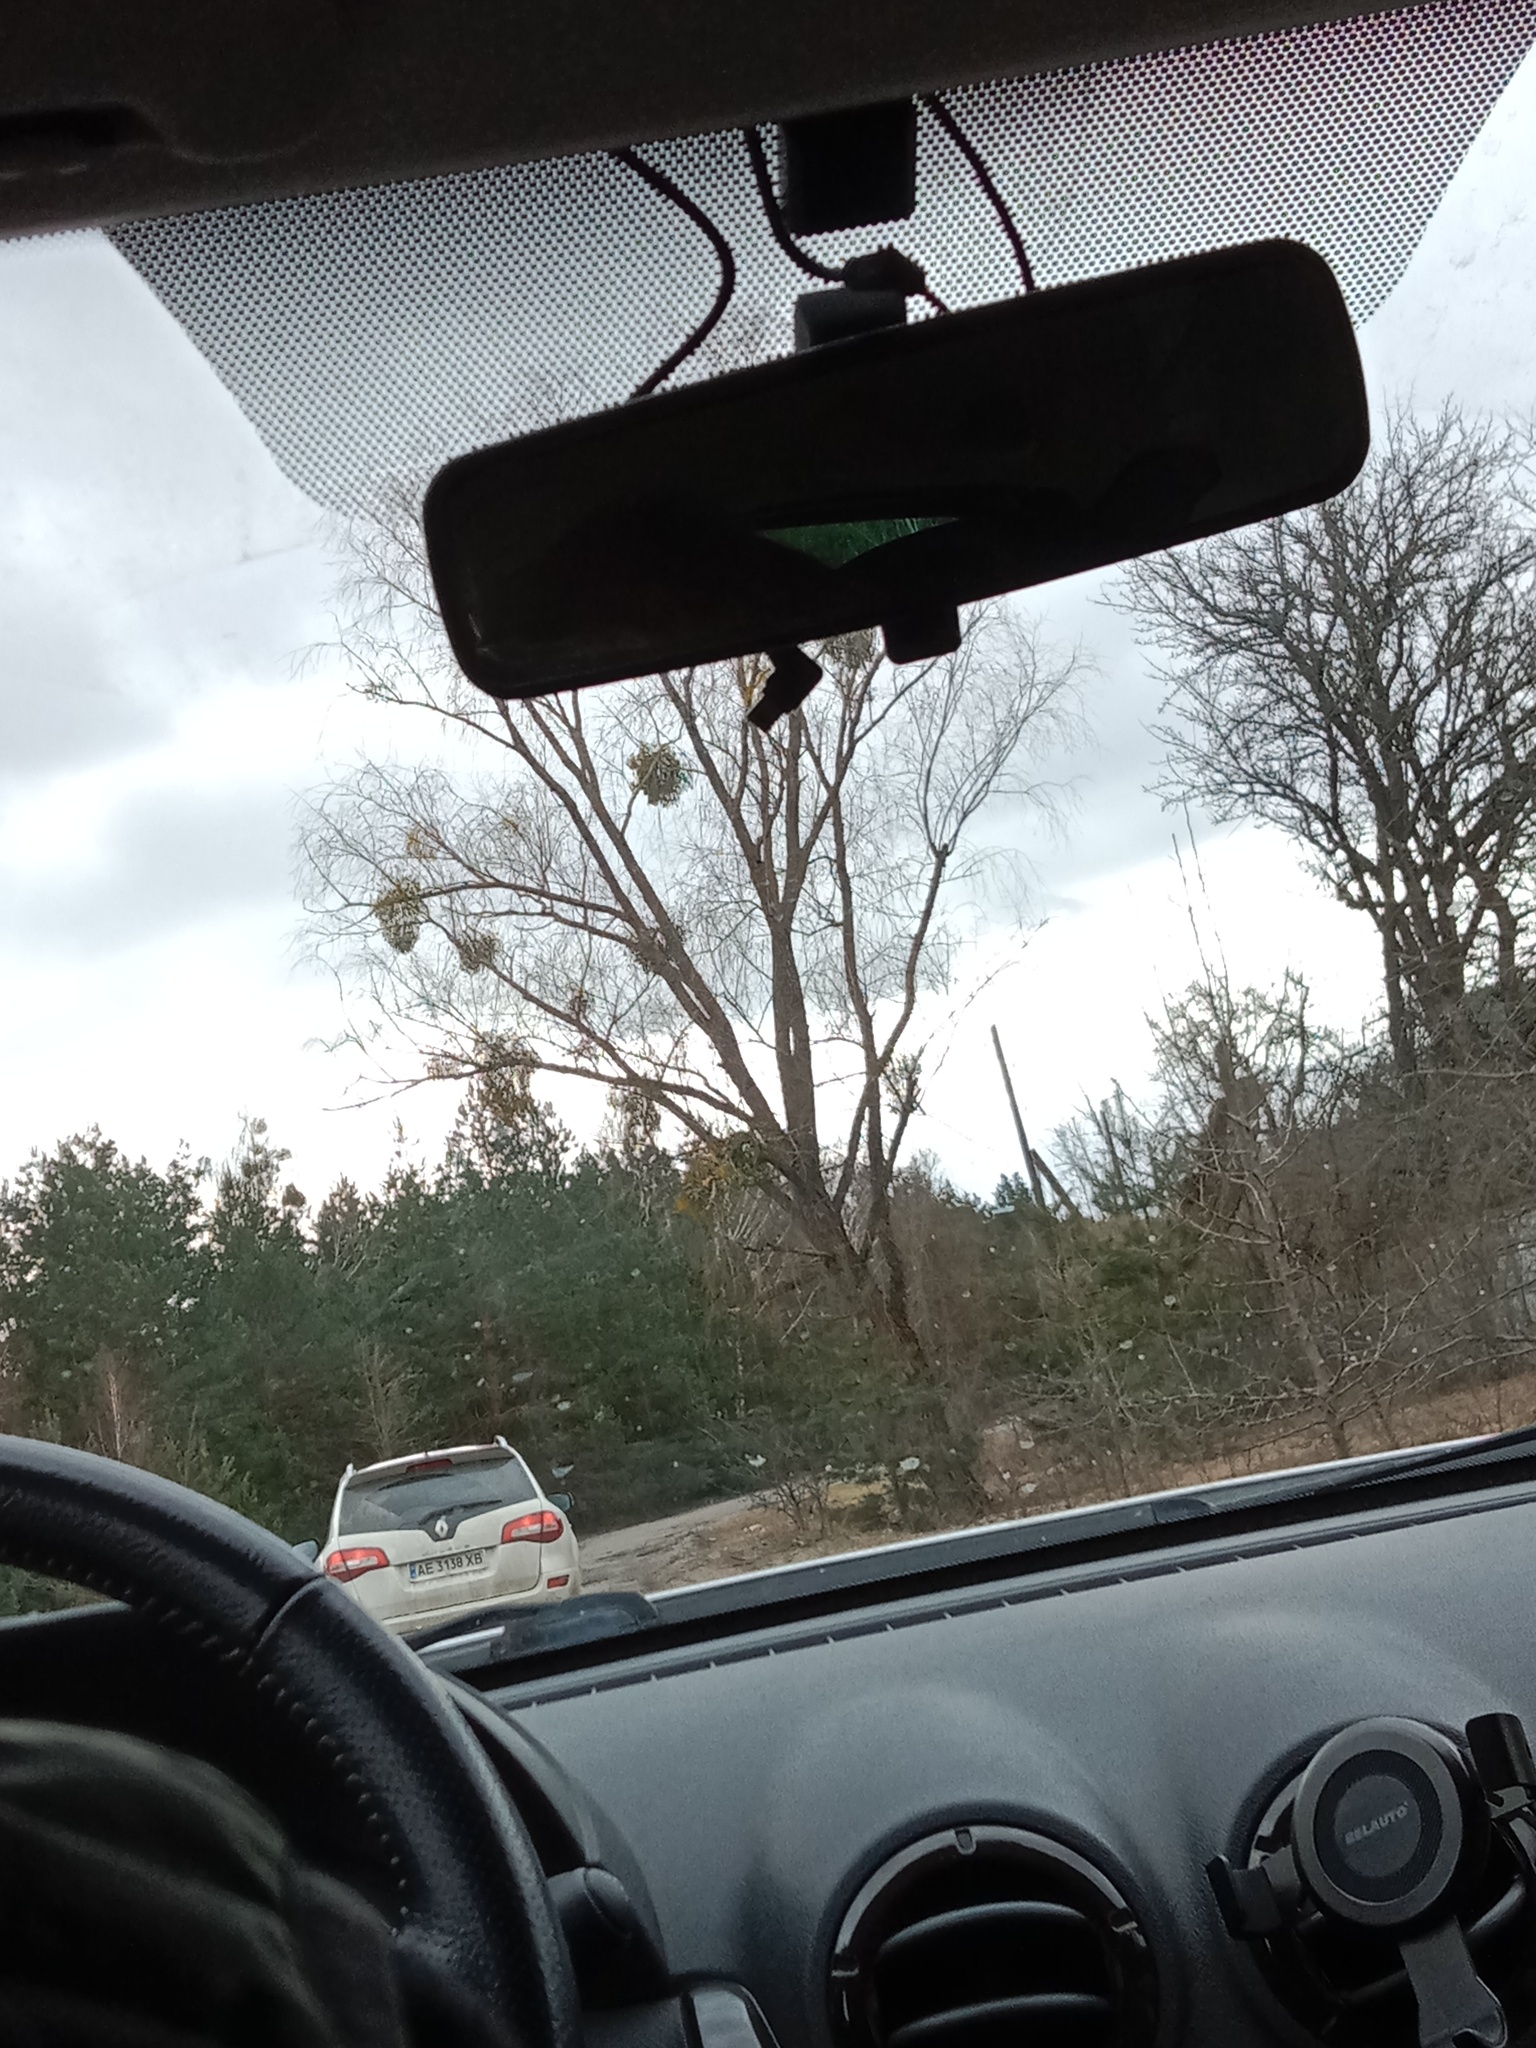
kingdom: Plantae
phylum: Tracheophyta
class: Magnoliopsida
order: Santalales
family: Viscaceae
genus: Viscum
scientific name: Viscum album
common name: Mistletoe
